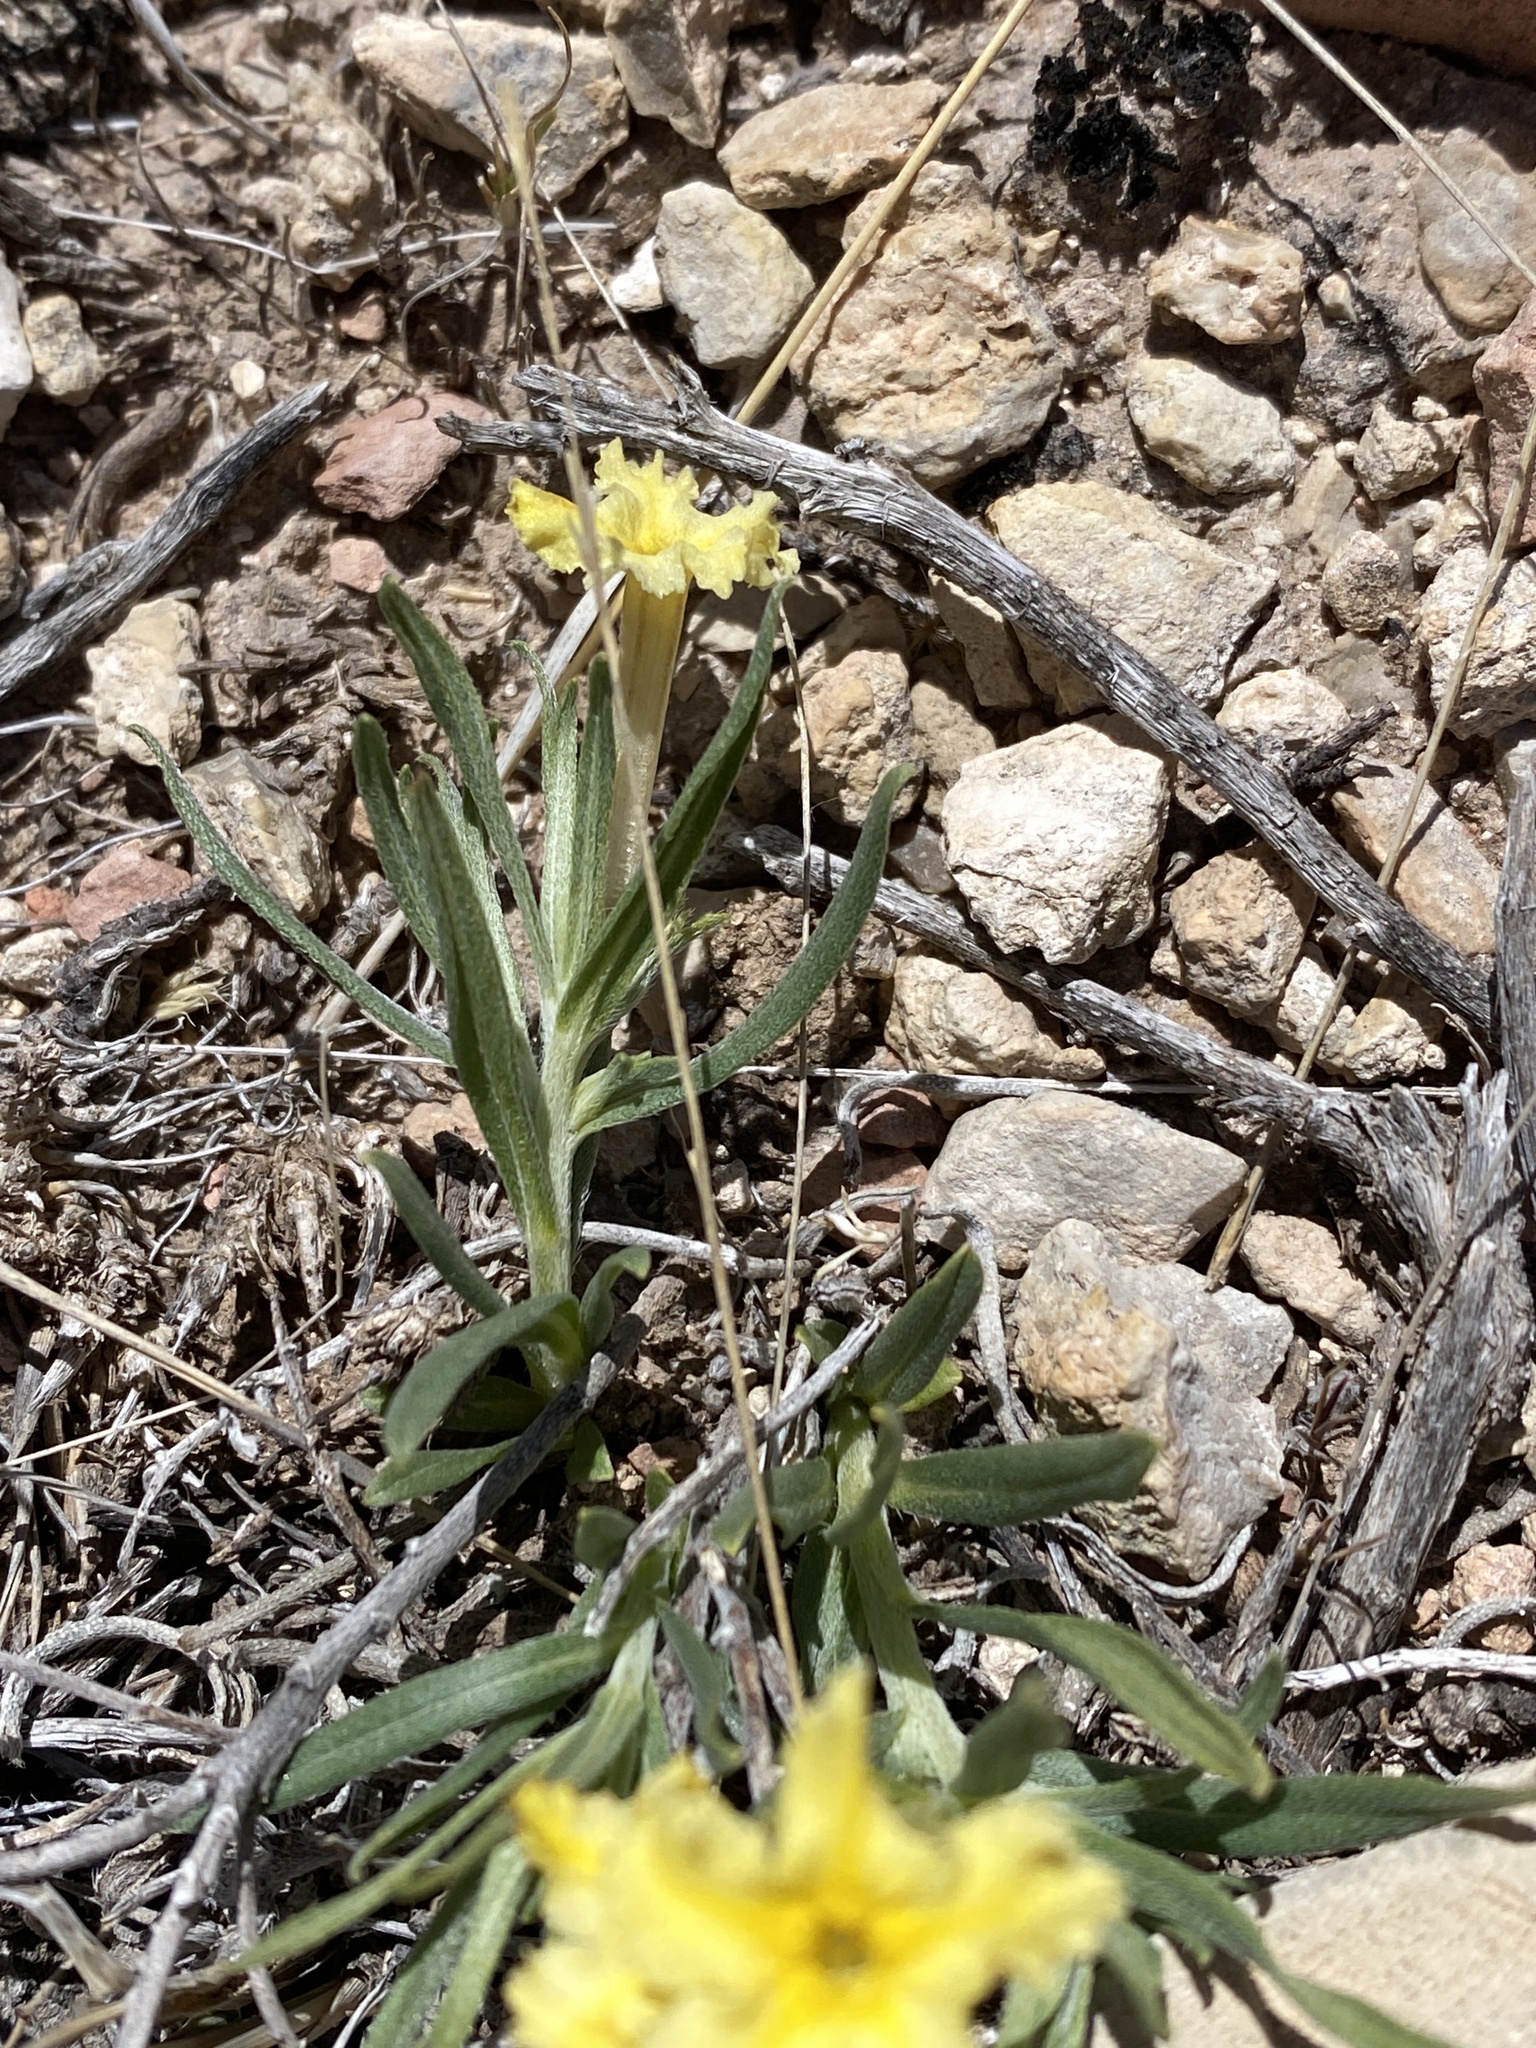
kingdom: Plantae
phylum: Tracheophyta
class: Magnoliopsida
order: Boraginales
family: Boraginaceae
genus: Lithospermum
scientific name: Lithospermum incisum
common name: Fringed gromwell
